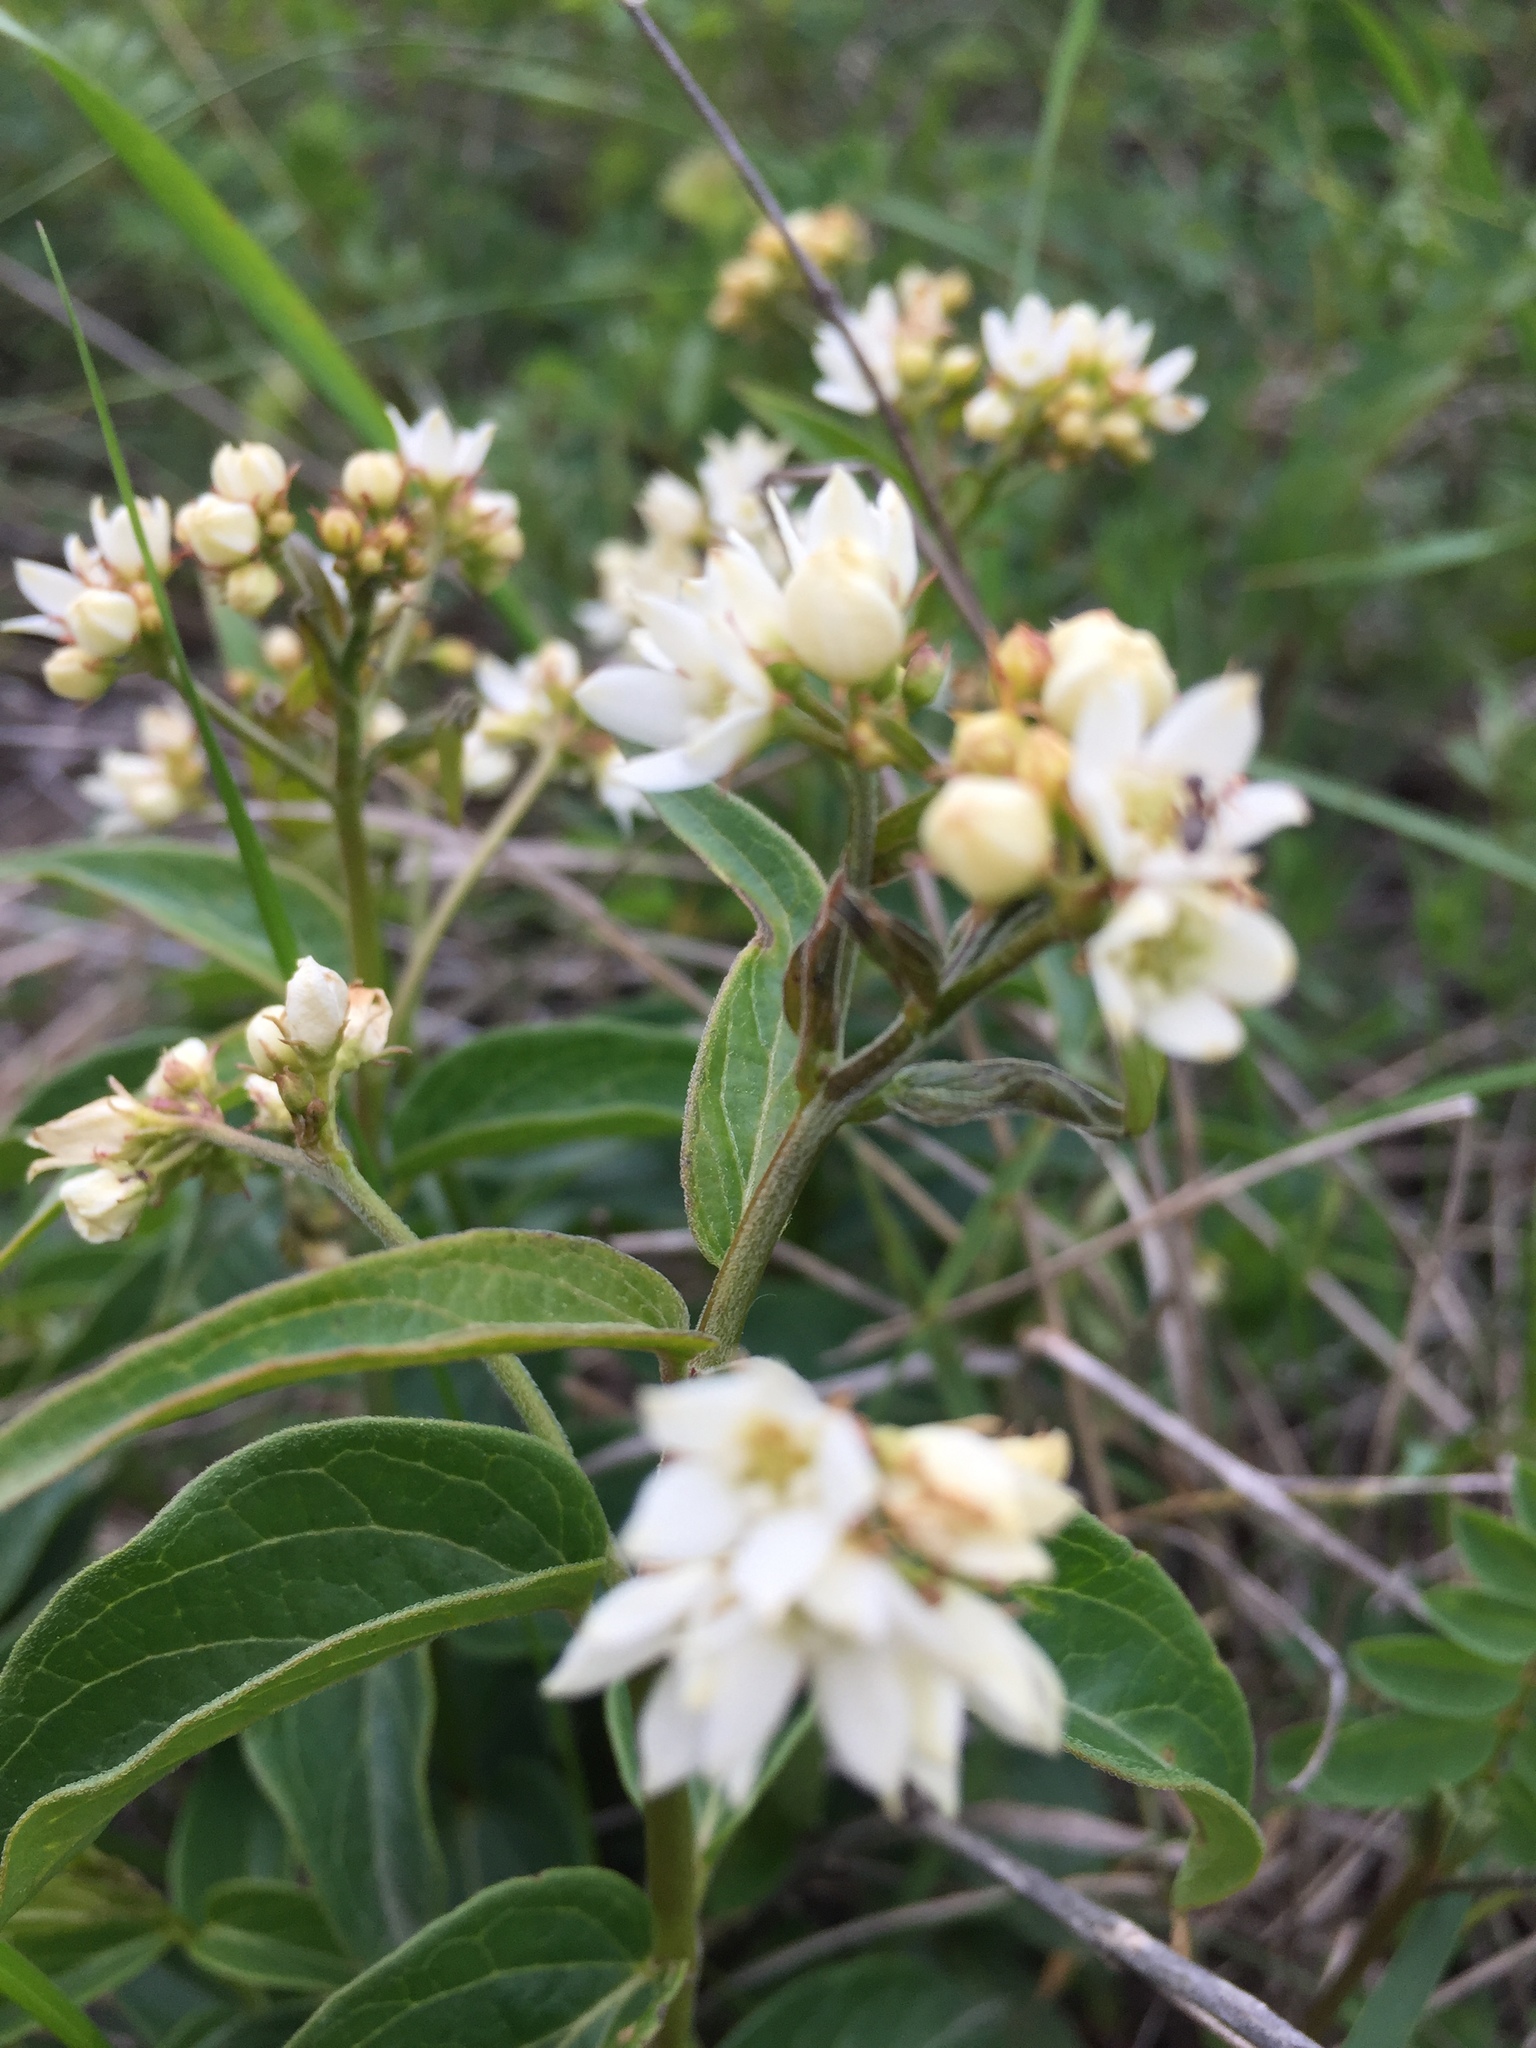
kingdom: Plantae
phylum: Tracheophyta
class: Magnoliopsida
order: Gentianales
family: Apocynaceae
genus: Vincetoxicum
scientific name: Vincetoxicum hirundinaria
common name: White swallowwort
